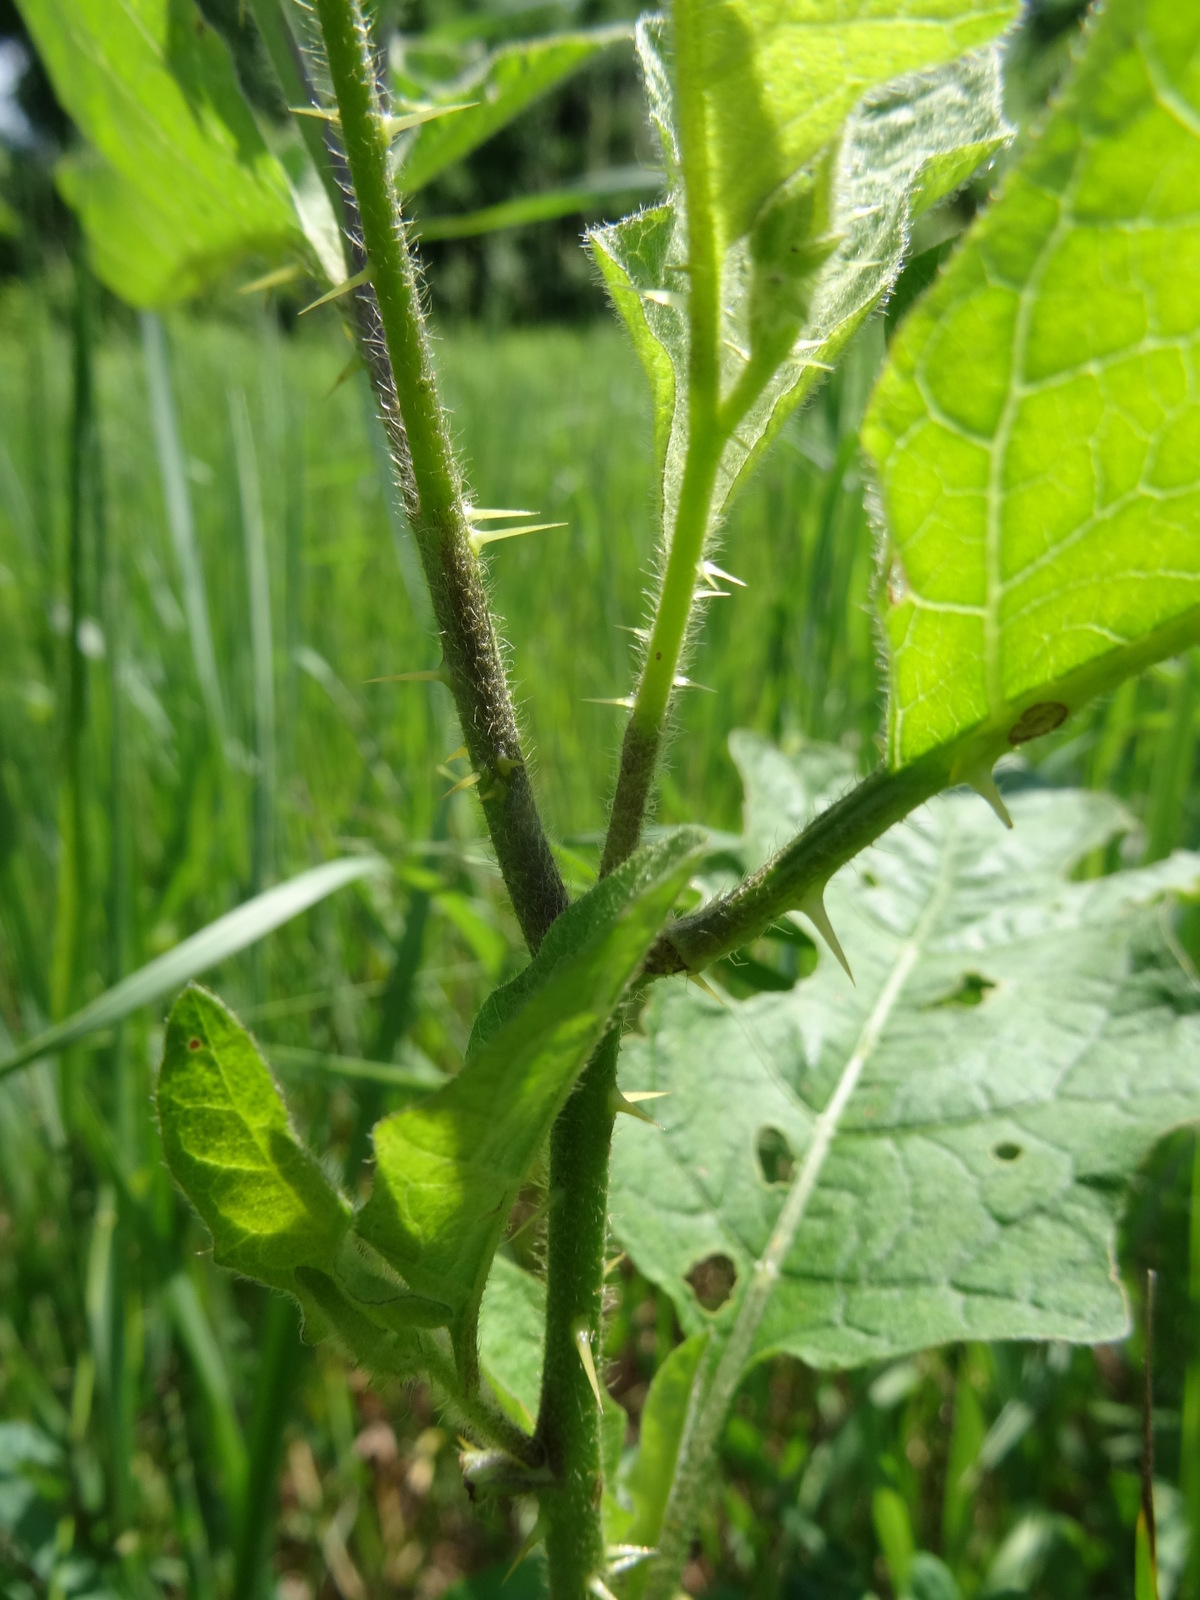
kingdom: Plantae
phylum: Tracheophyta
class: Magnoliopsida
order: Solanales
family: Solanaceae
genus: Solanum
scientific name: Solanum carolinense
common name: Horse-nettle
